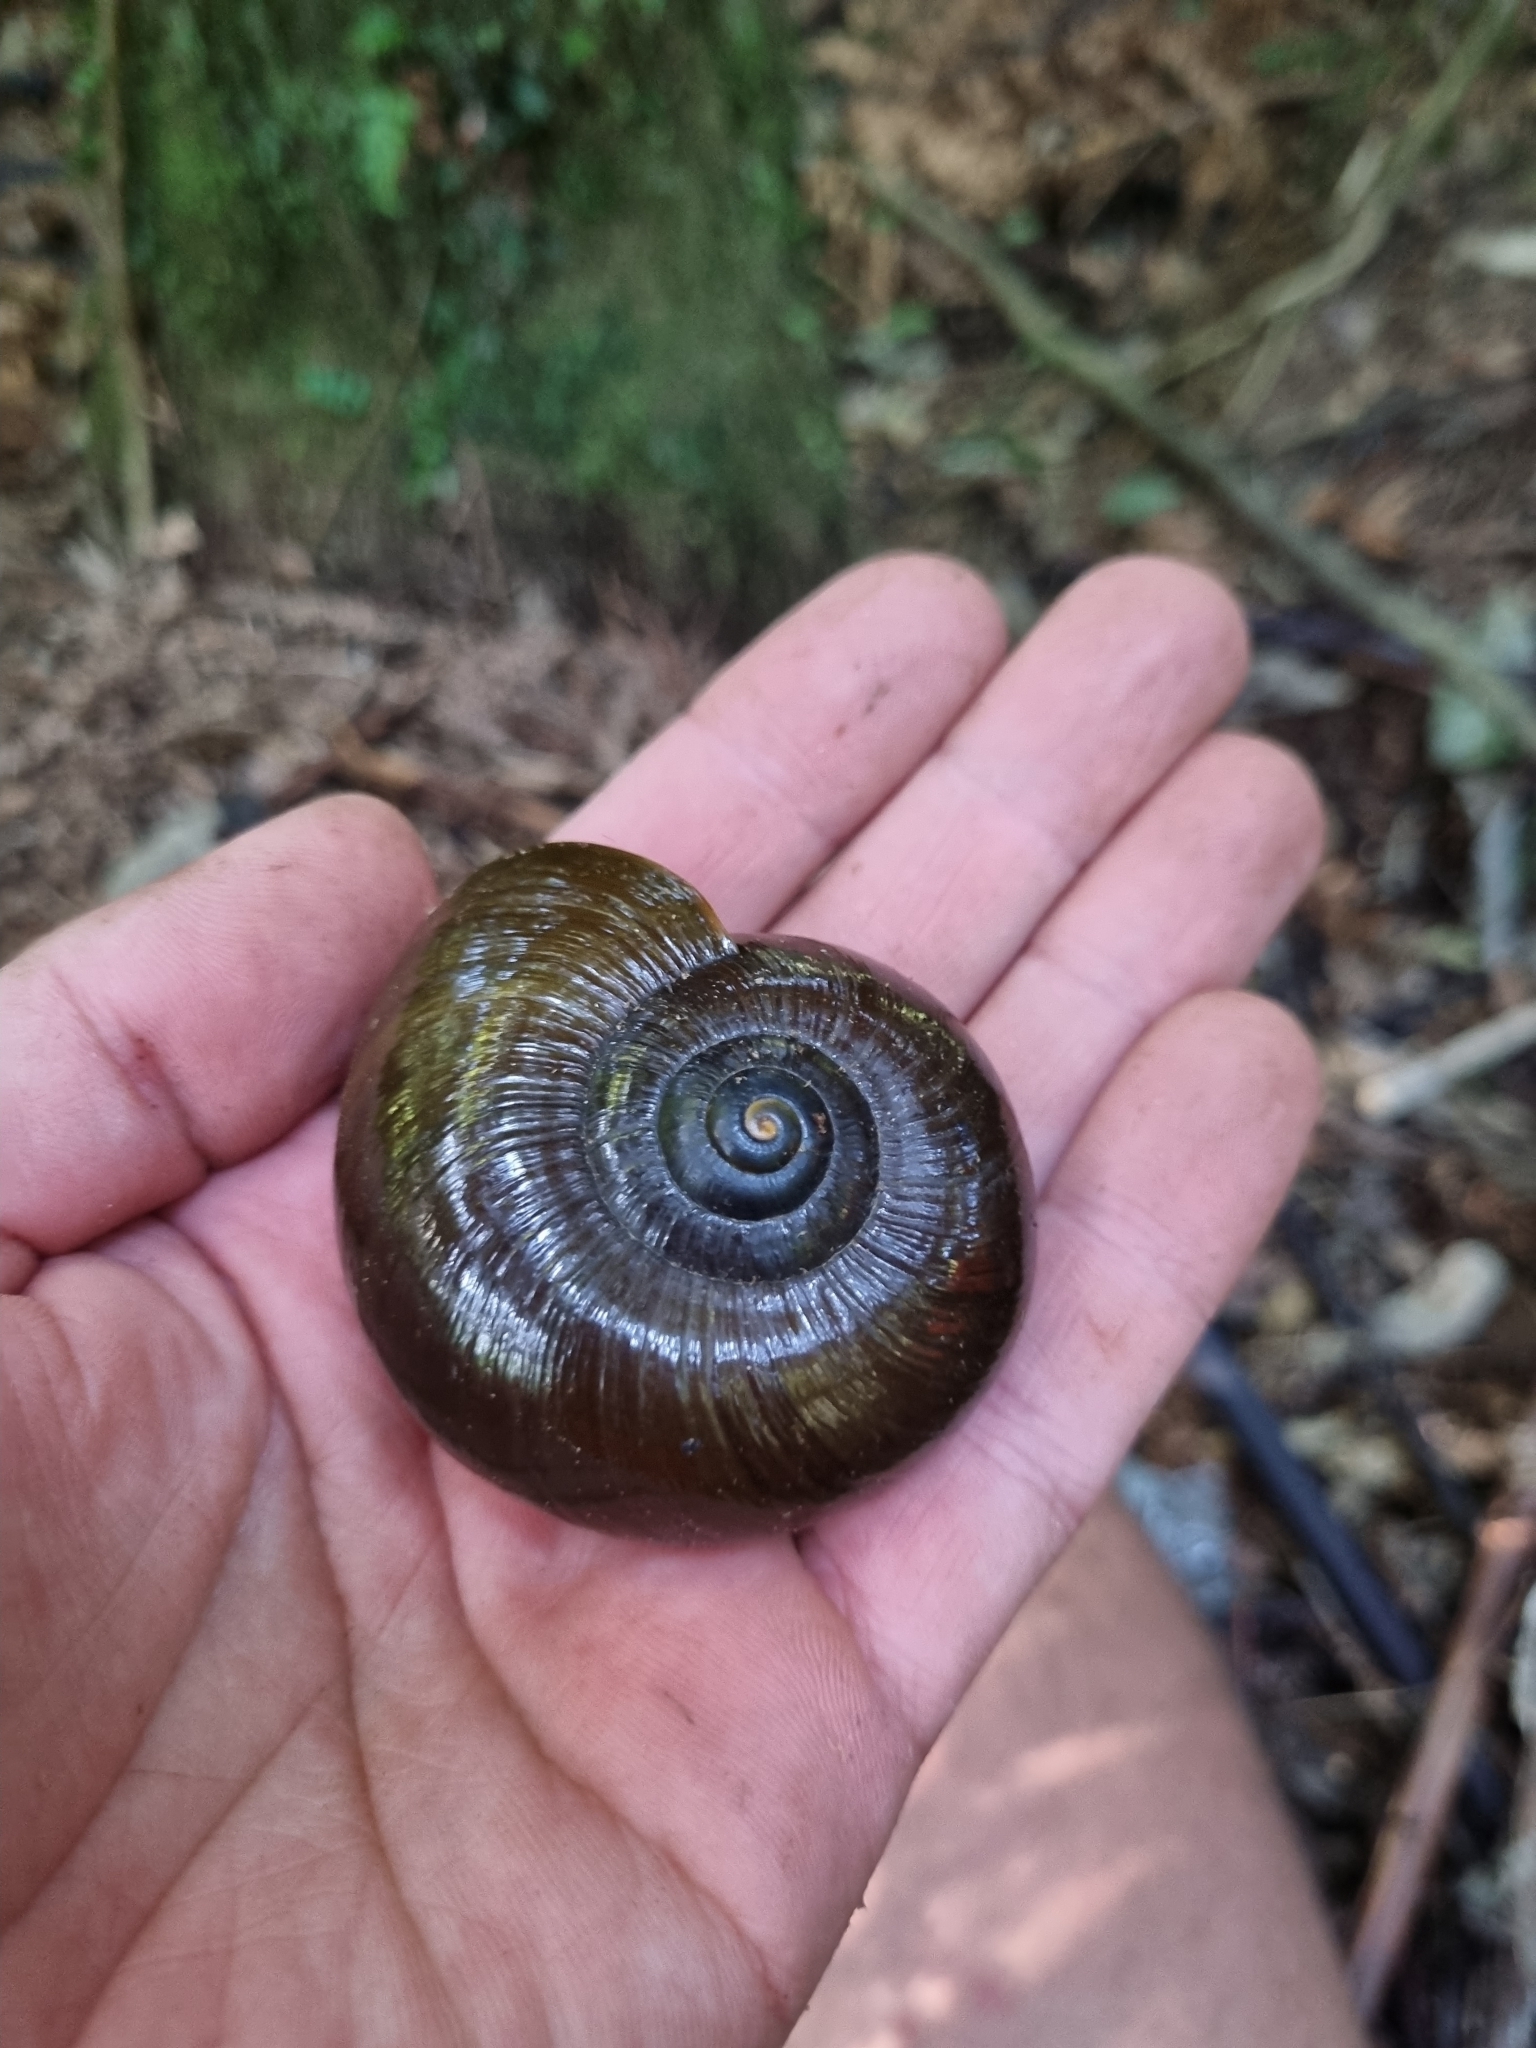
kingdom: Animalia
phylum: Mollusca
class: Gastropoda
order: Stylommatophora
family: Rhytididae
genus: Powelliphanta
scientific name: Powelliphanta superba
